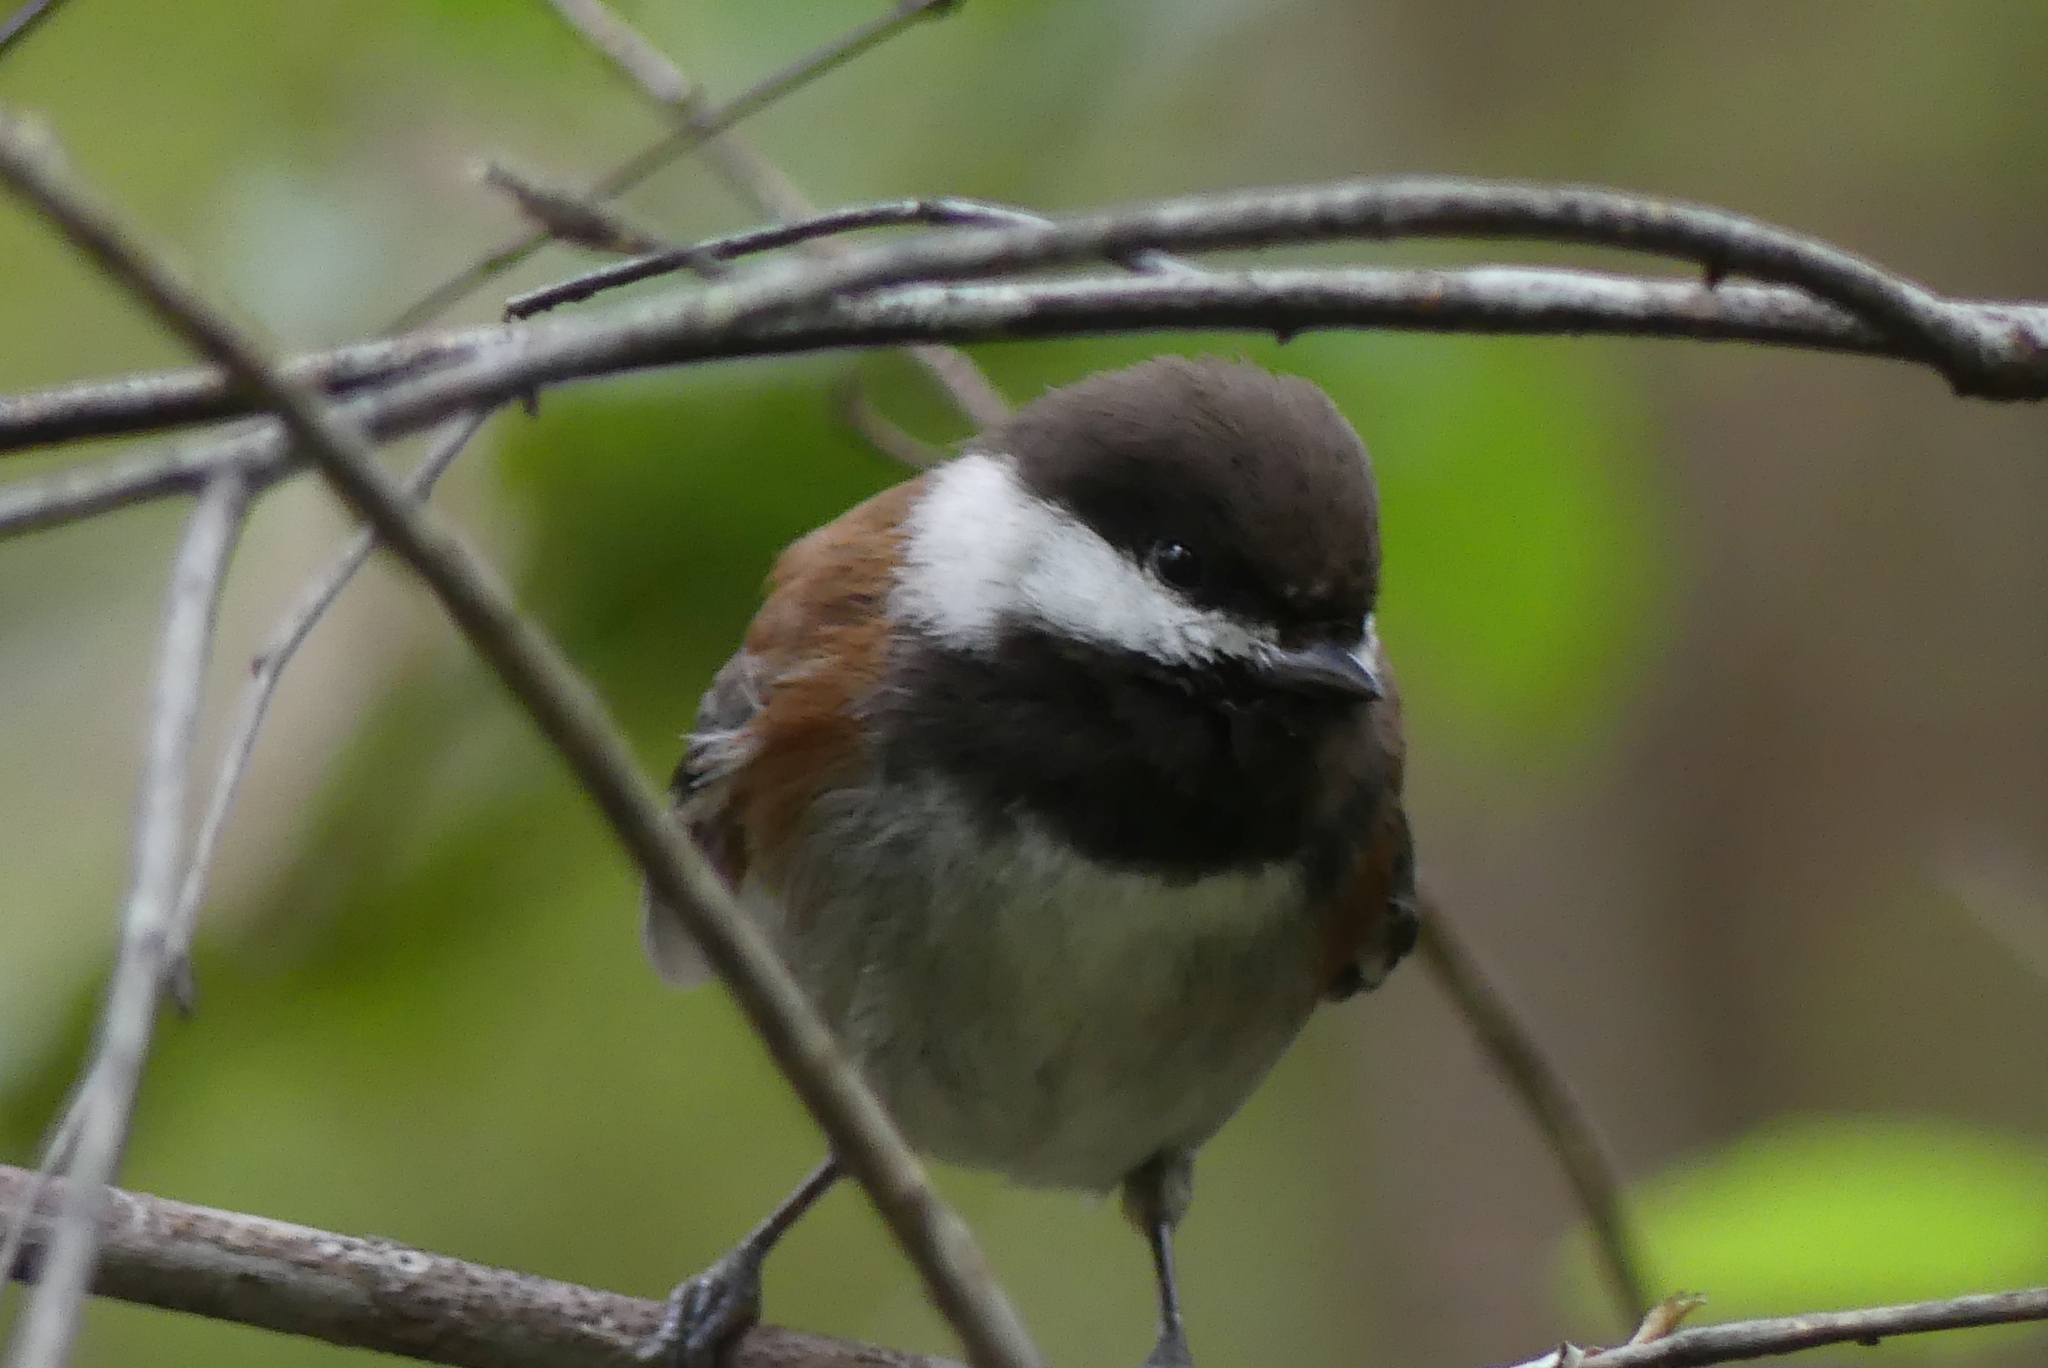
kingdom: Animalia
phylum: Chordata
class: Aves
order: Passeriformes
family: Paridae
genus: Poecile
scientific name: Poecile rufescens
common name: Chestnut-backed chickadee
